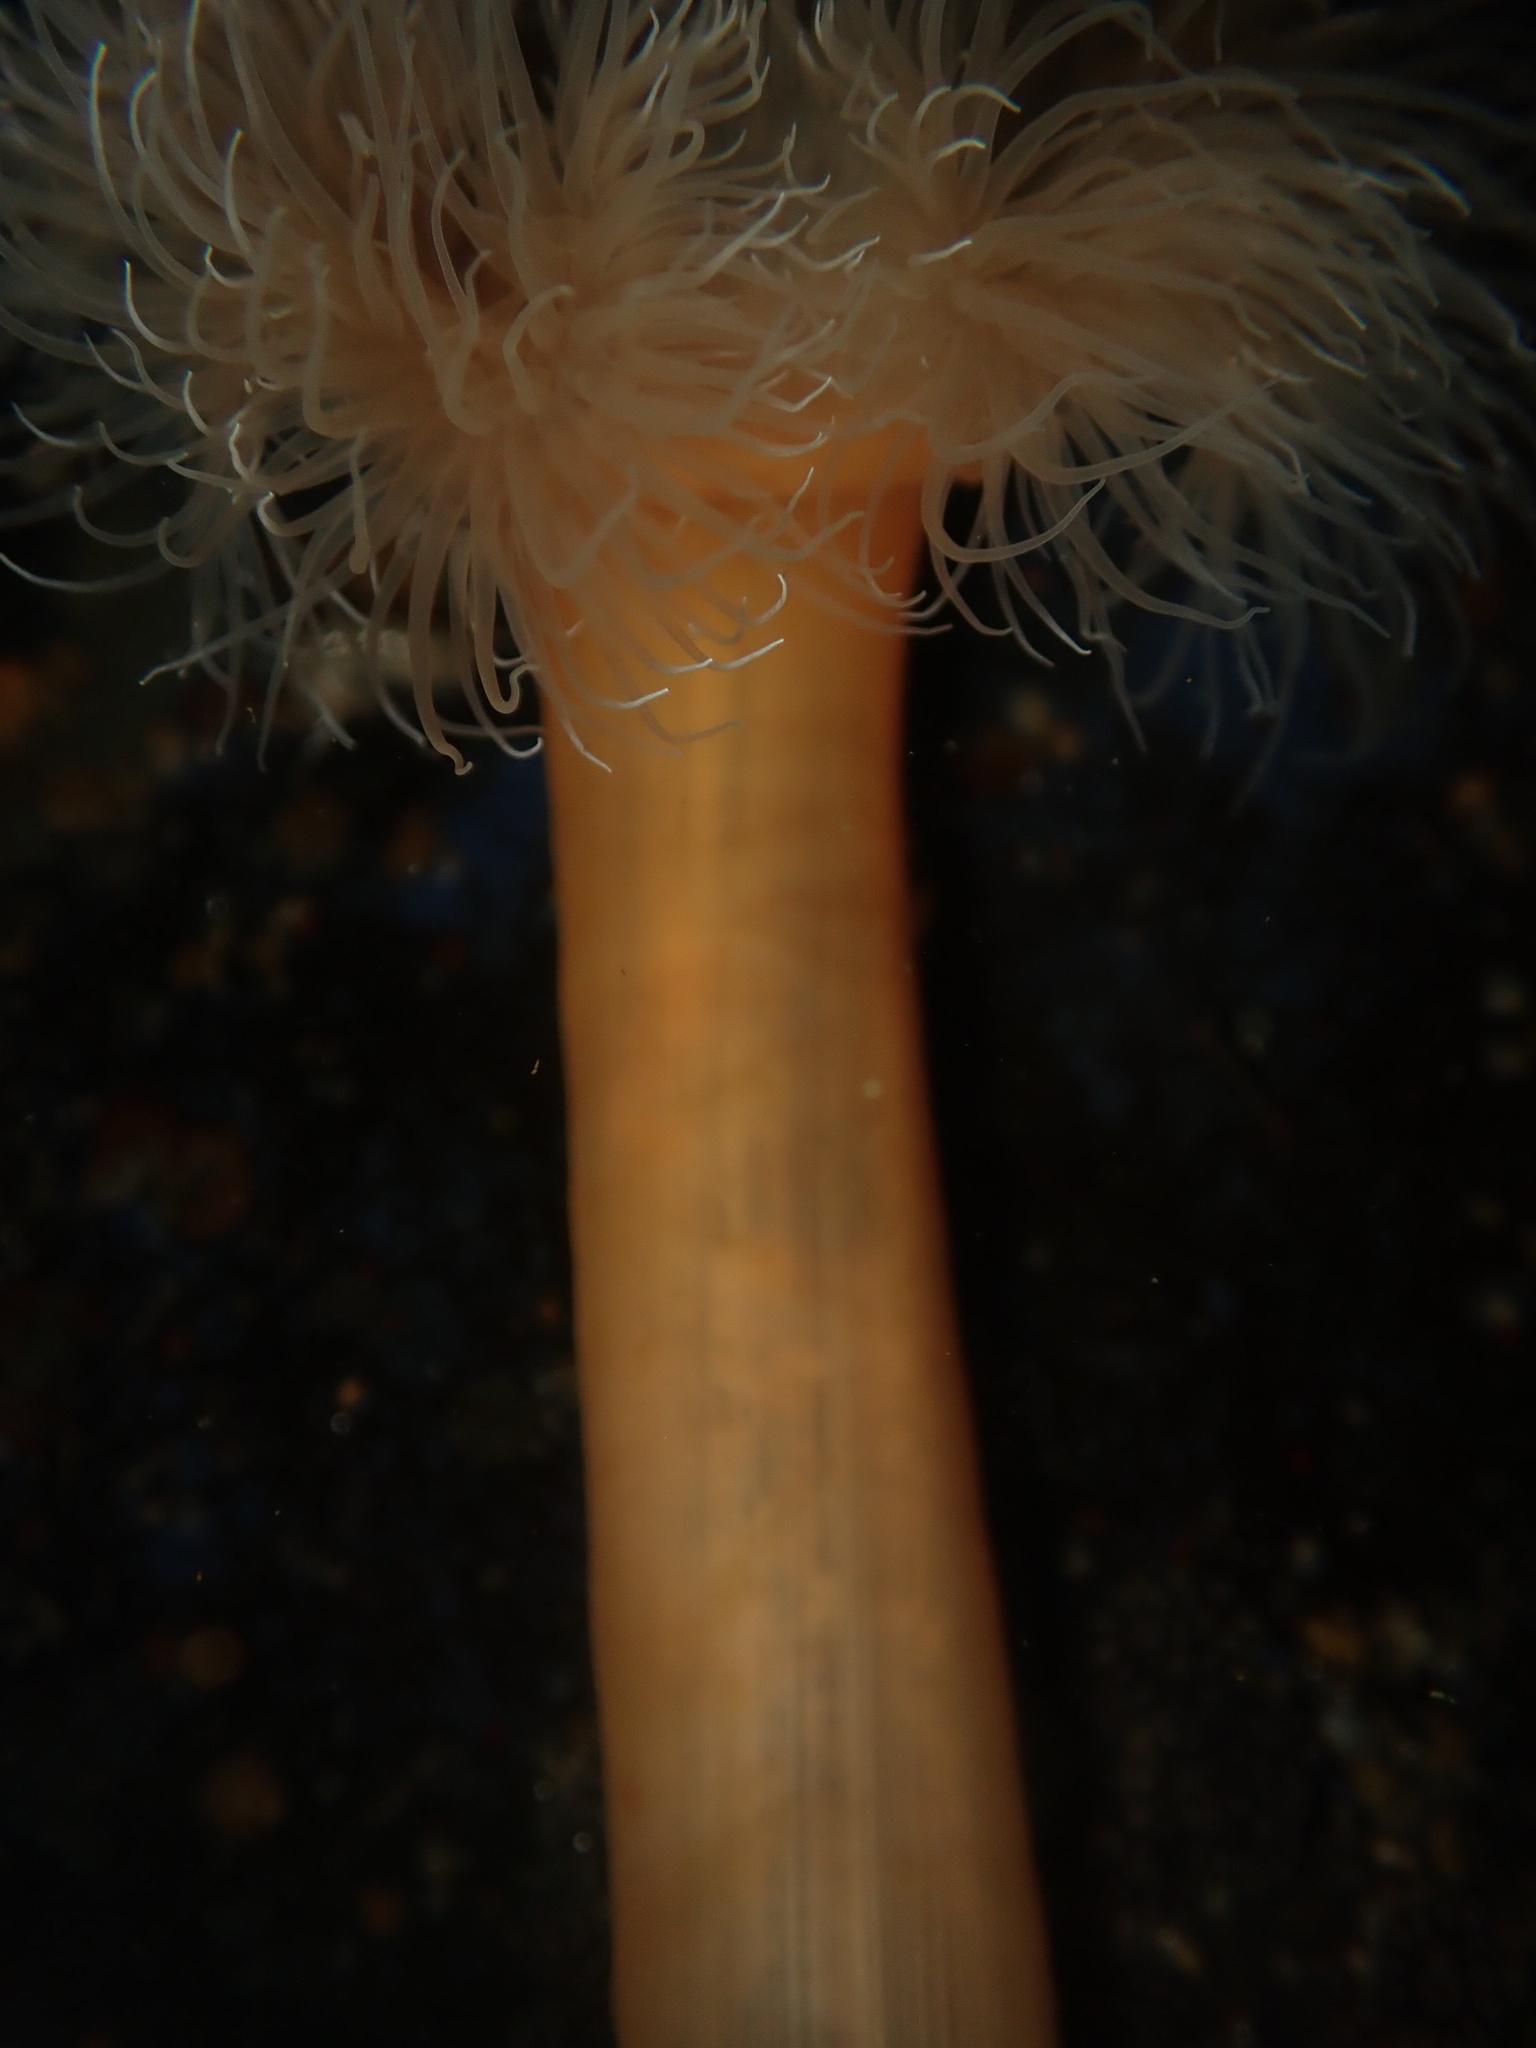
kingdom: Animalia
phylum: Cnidaria
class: Anthozoa
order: Actiniaria
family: Metridiidae
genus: Metridium
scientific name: Metridium senile
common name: Clonal plumose anemone
